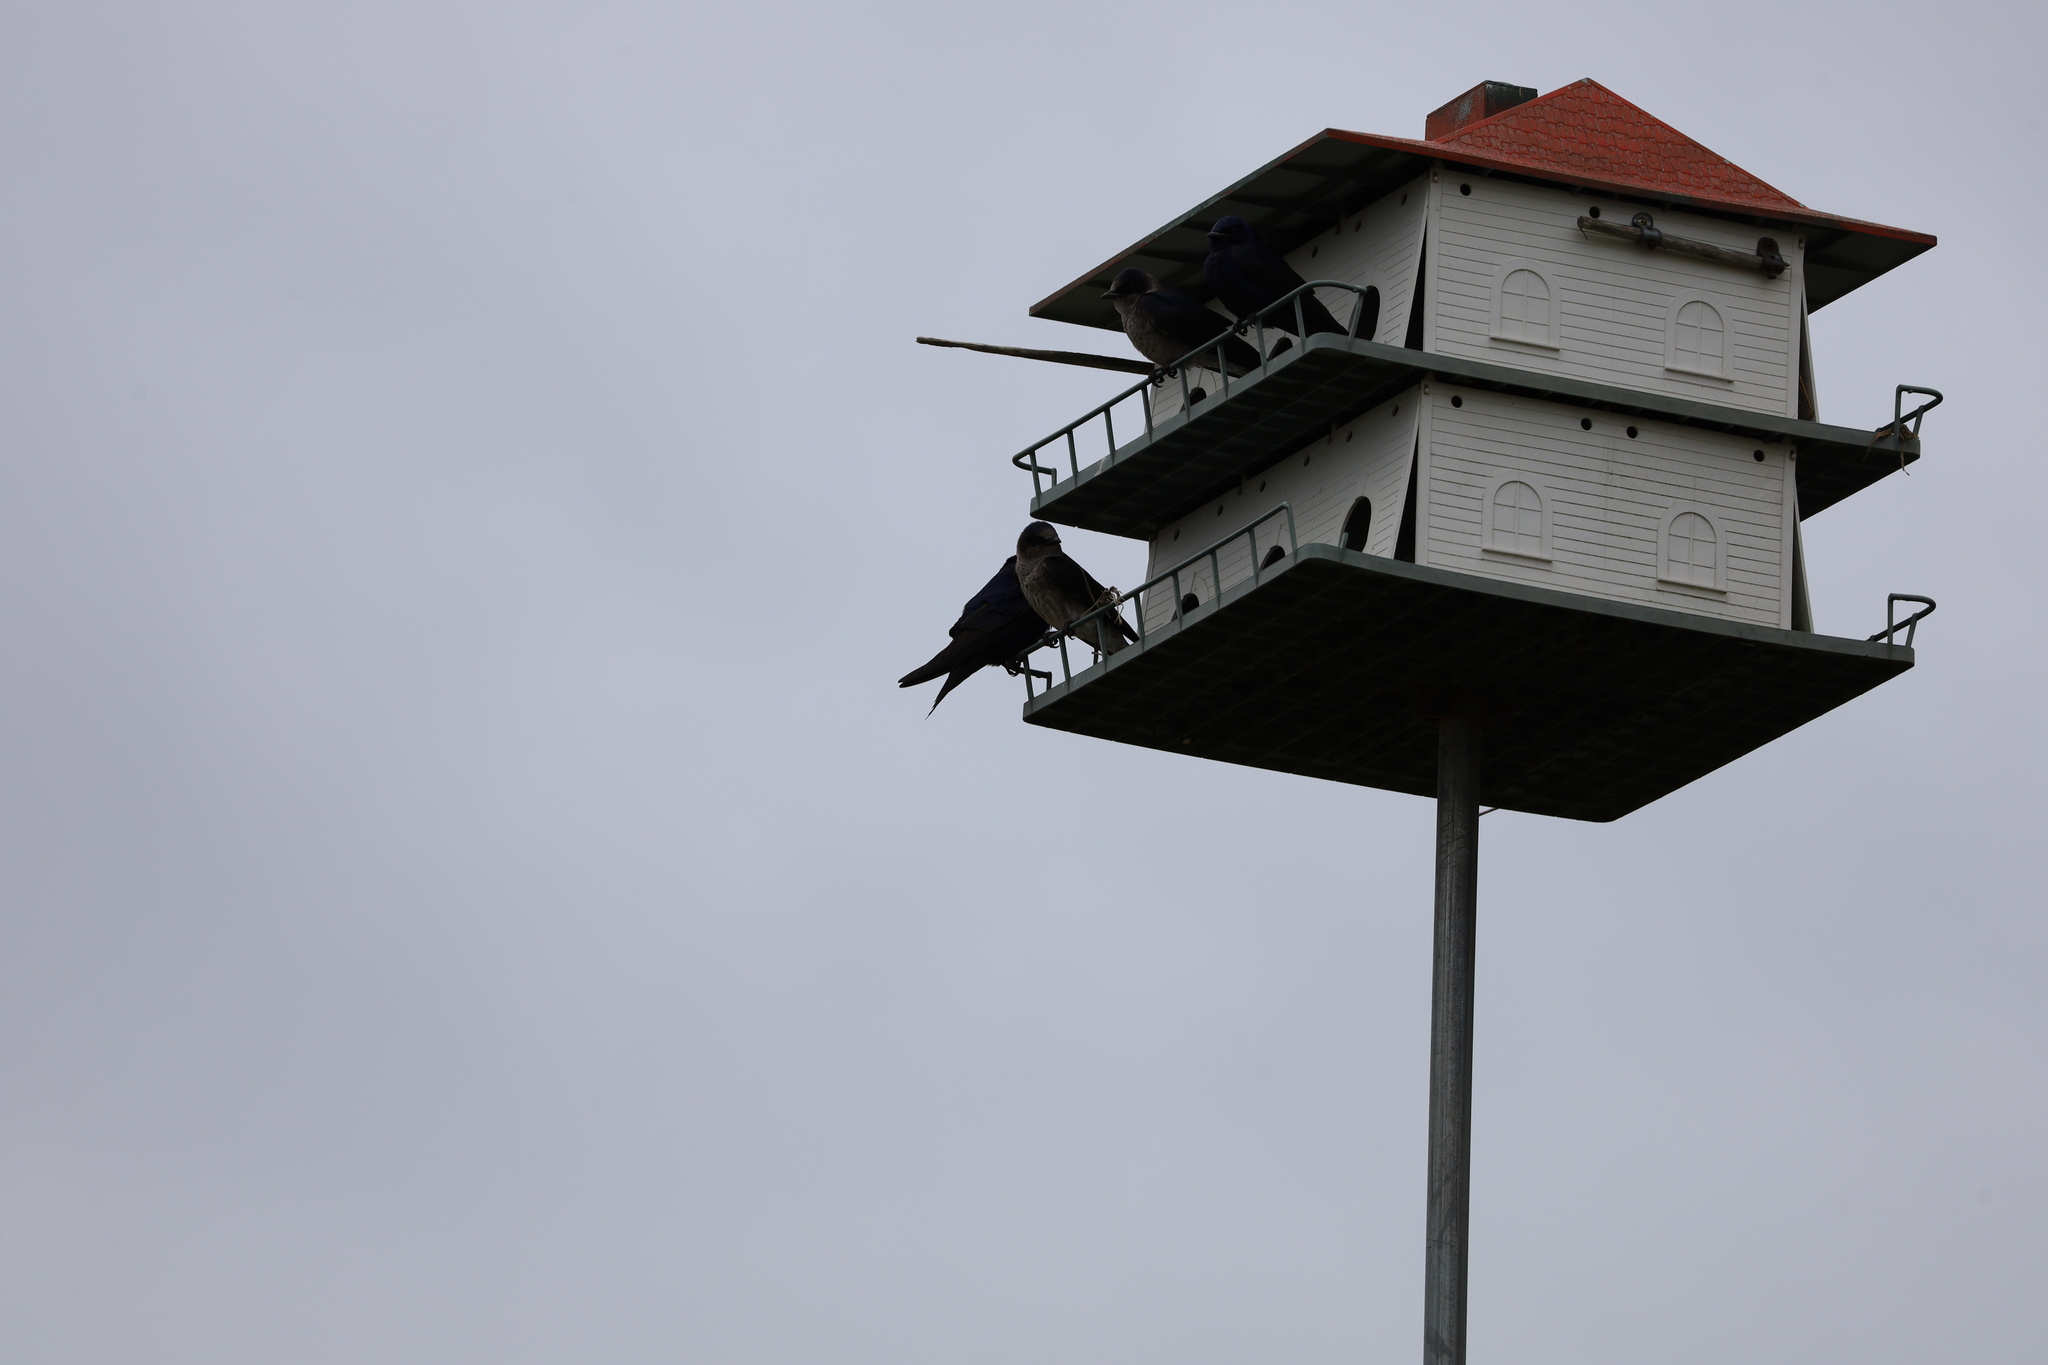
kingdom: Animalia
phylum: Chordata
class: Aves
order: Passeriformes
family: Hirundinidae
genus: Progne
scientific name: Progne subis
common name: Purple martin
